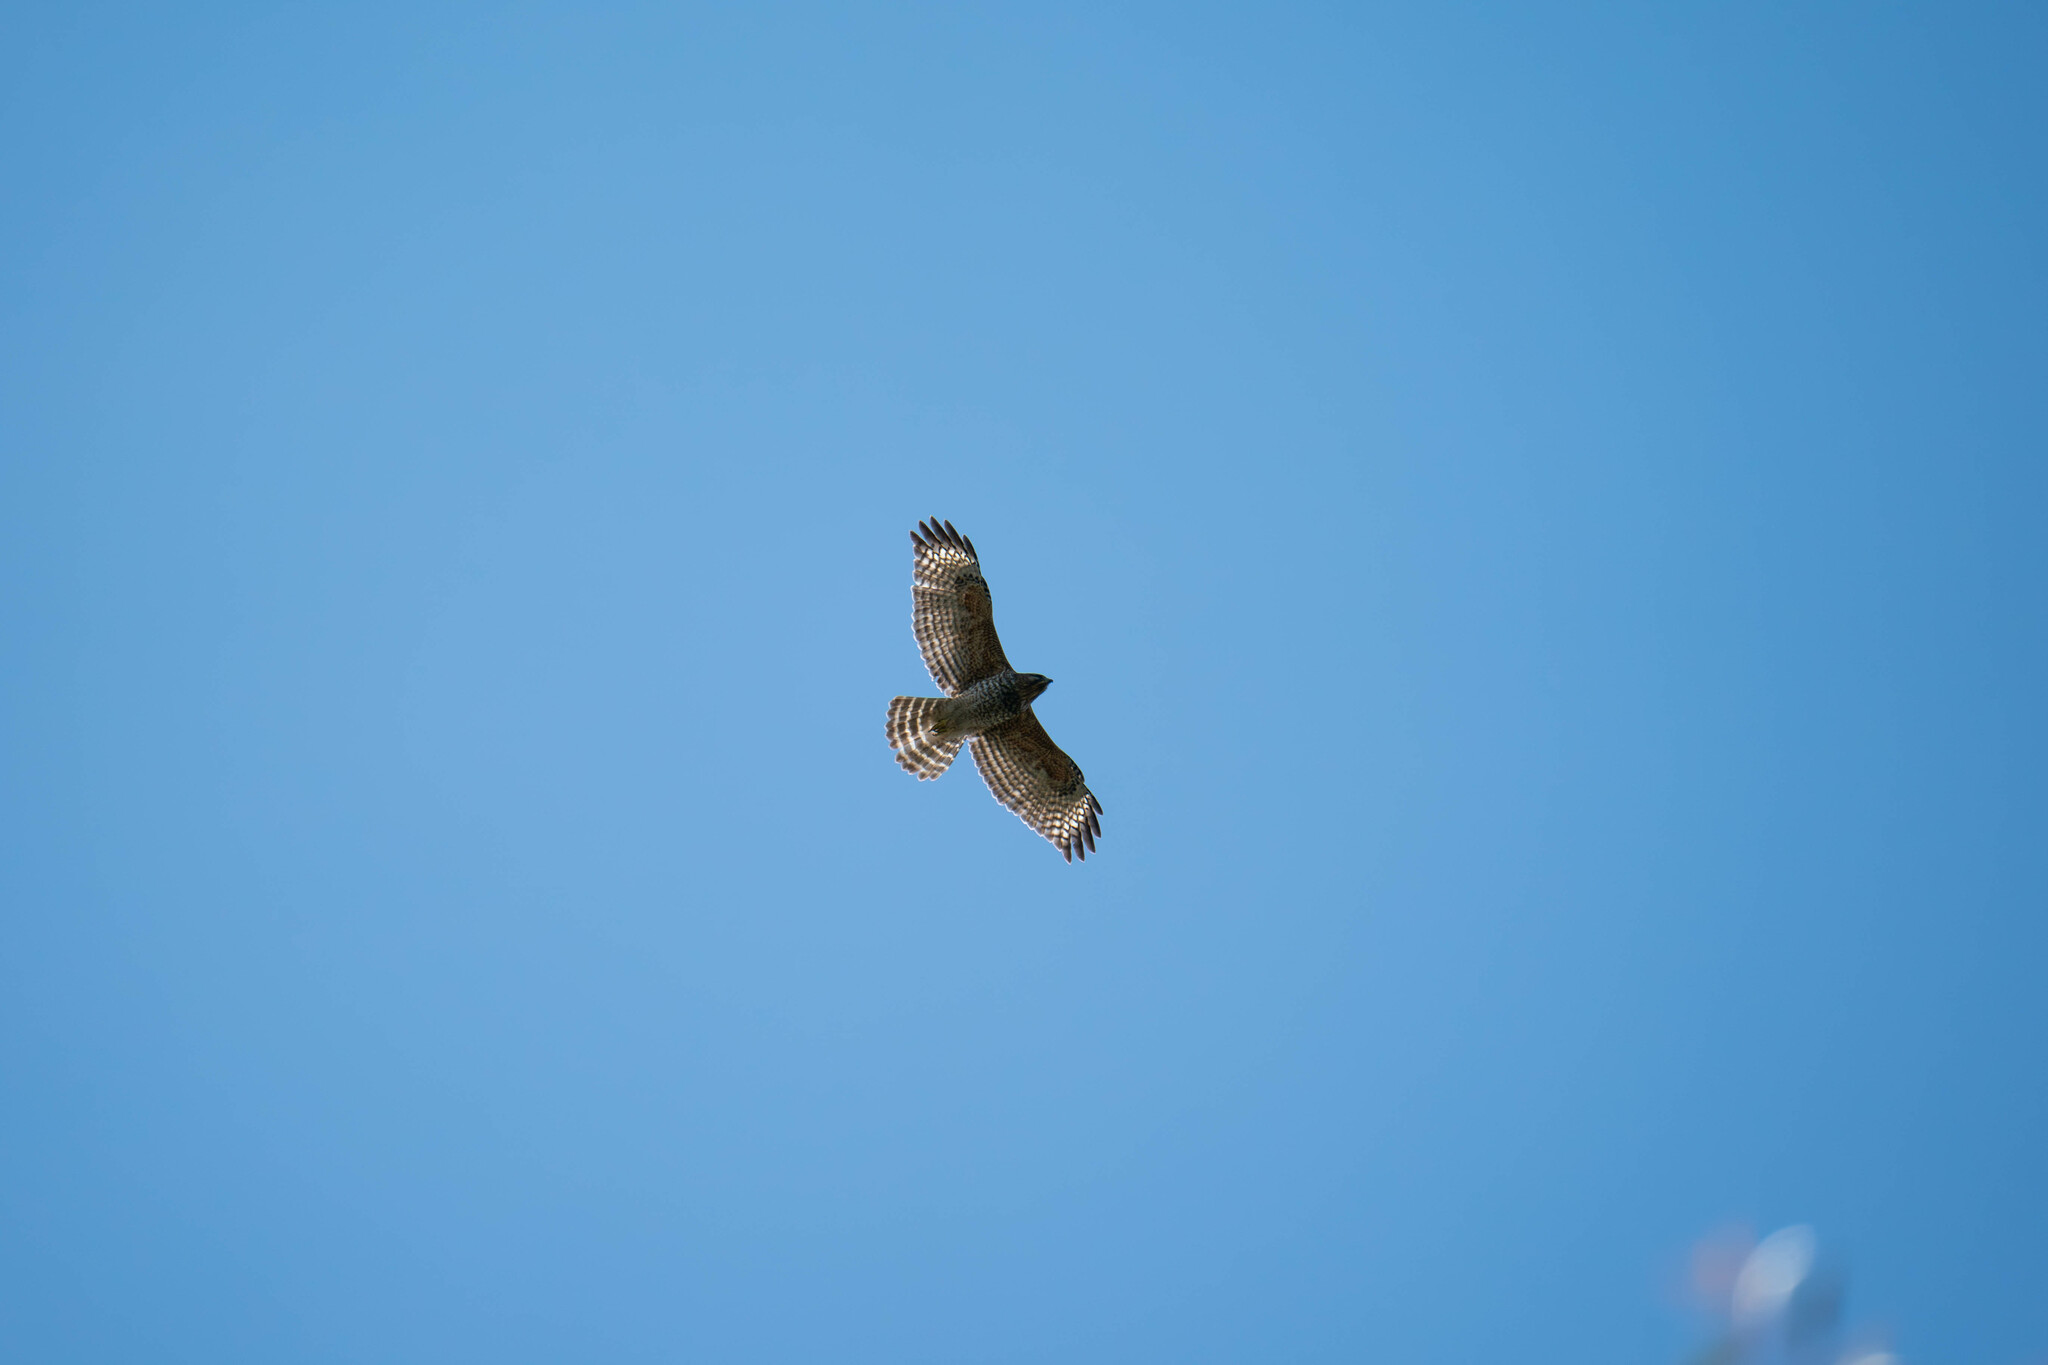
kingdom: Animalia
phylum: Chordata
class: Aves
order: Accipitriformes
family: Accipitridae
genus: Buteo
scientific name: Buteo lineatus
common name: Red-shouldered hawk
